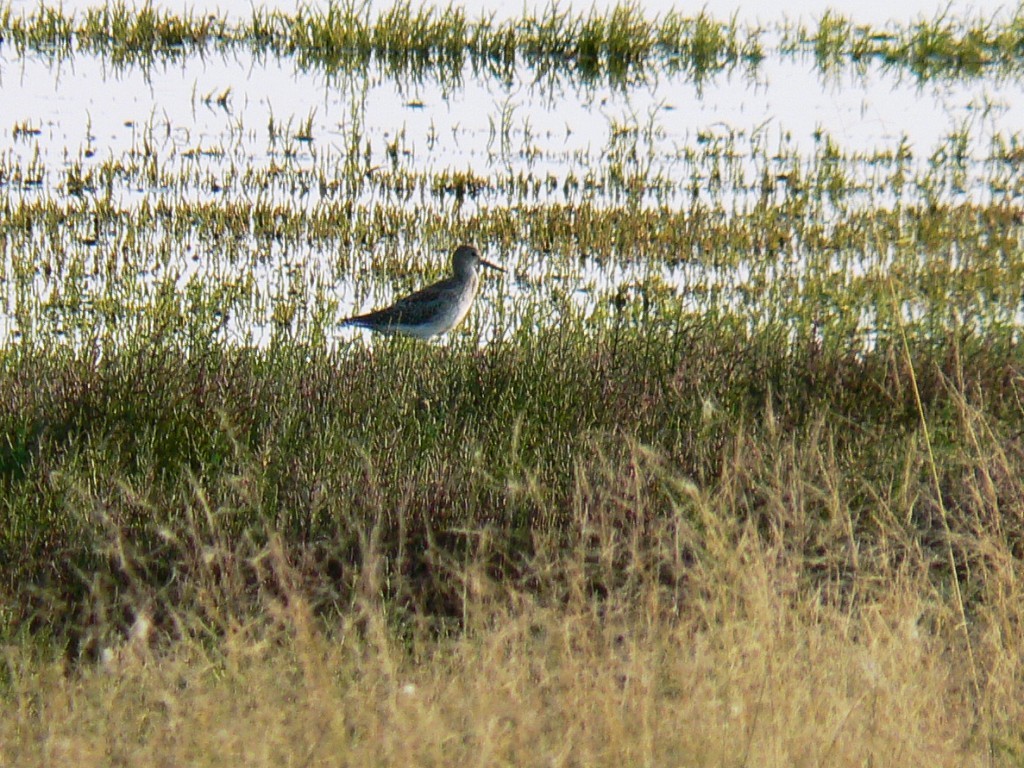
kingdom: Animalia
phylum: Chordata
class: Aves
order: Charadriiformes
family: Scolopacidae
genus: Tringa
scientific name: Tringa totanus
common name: Common redshank
